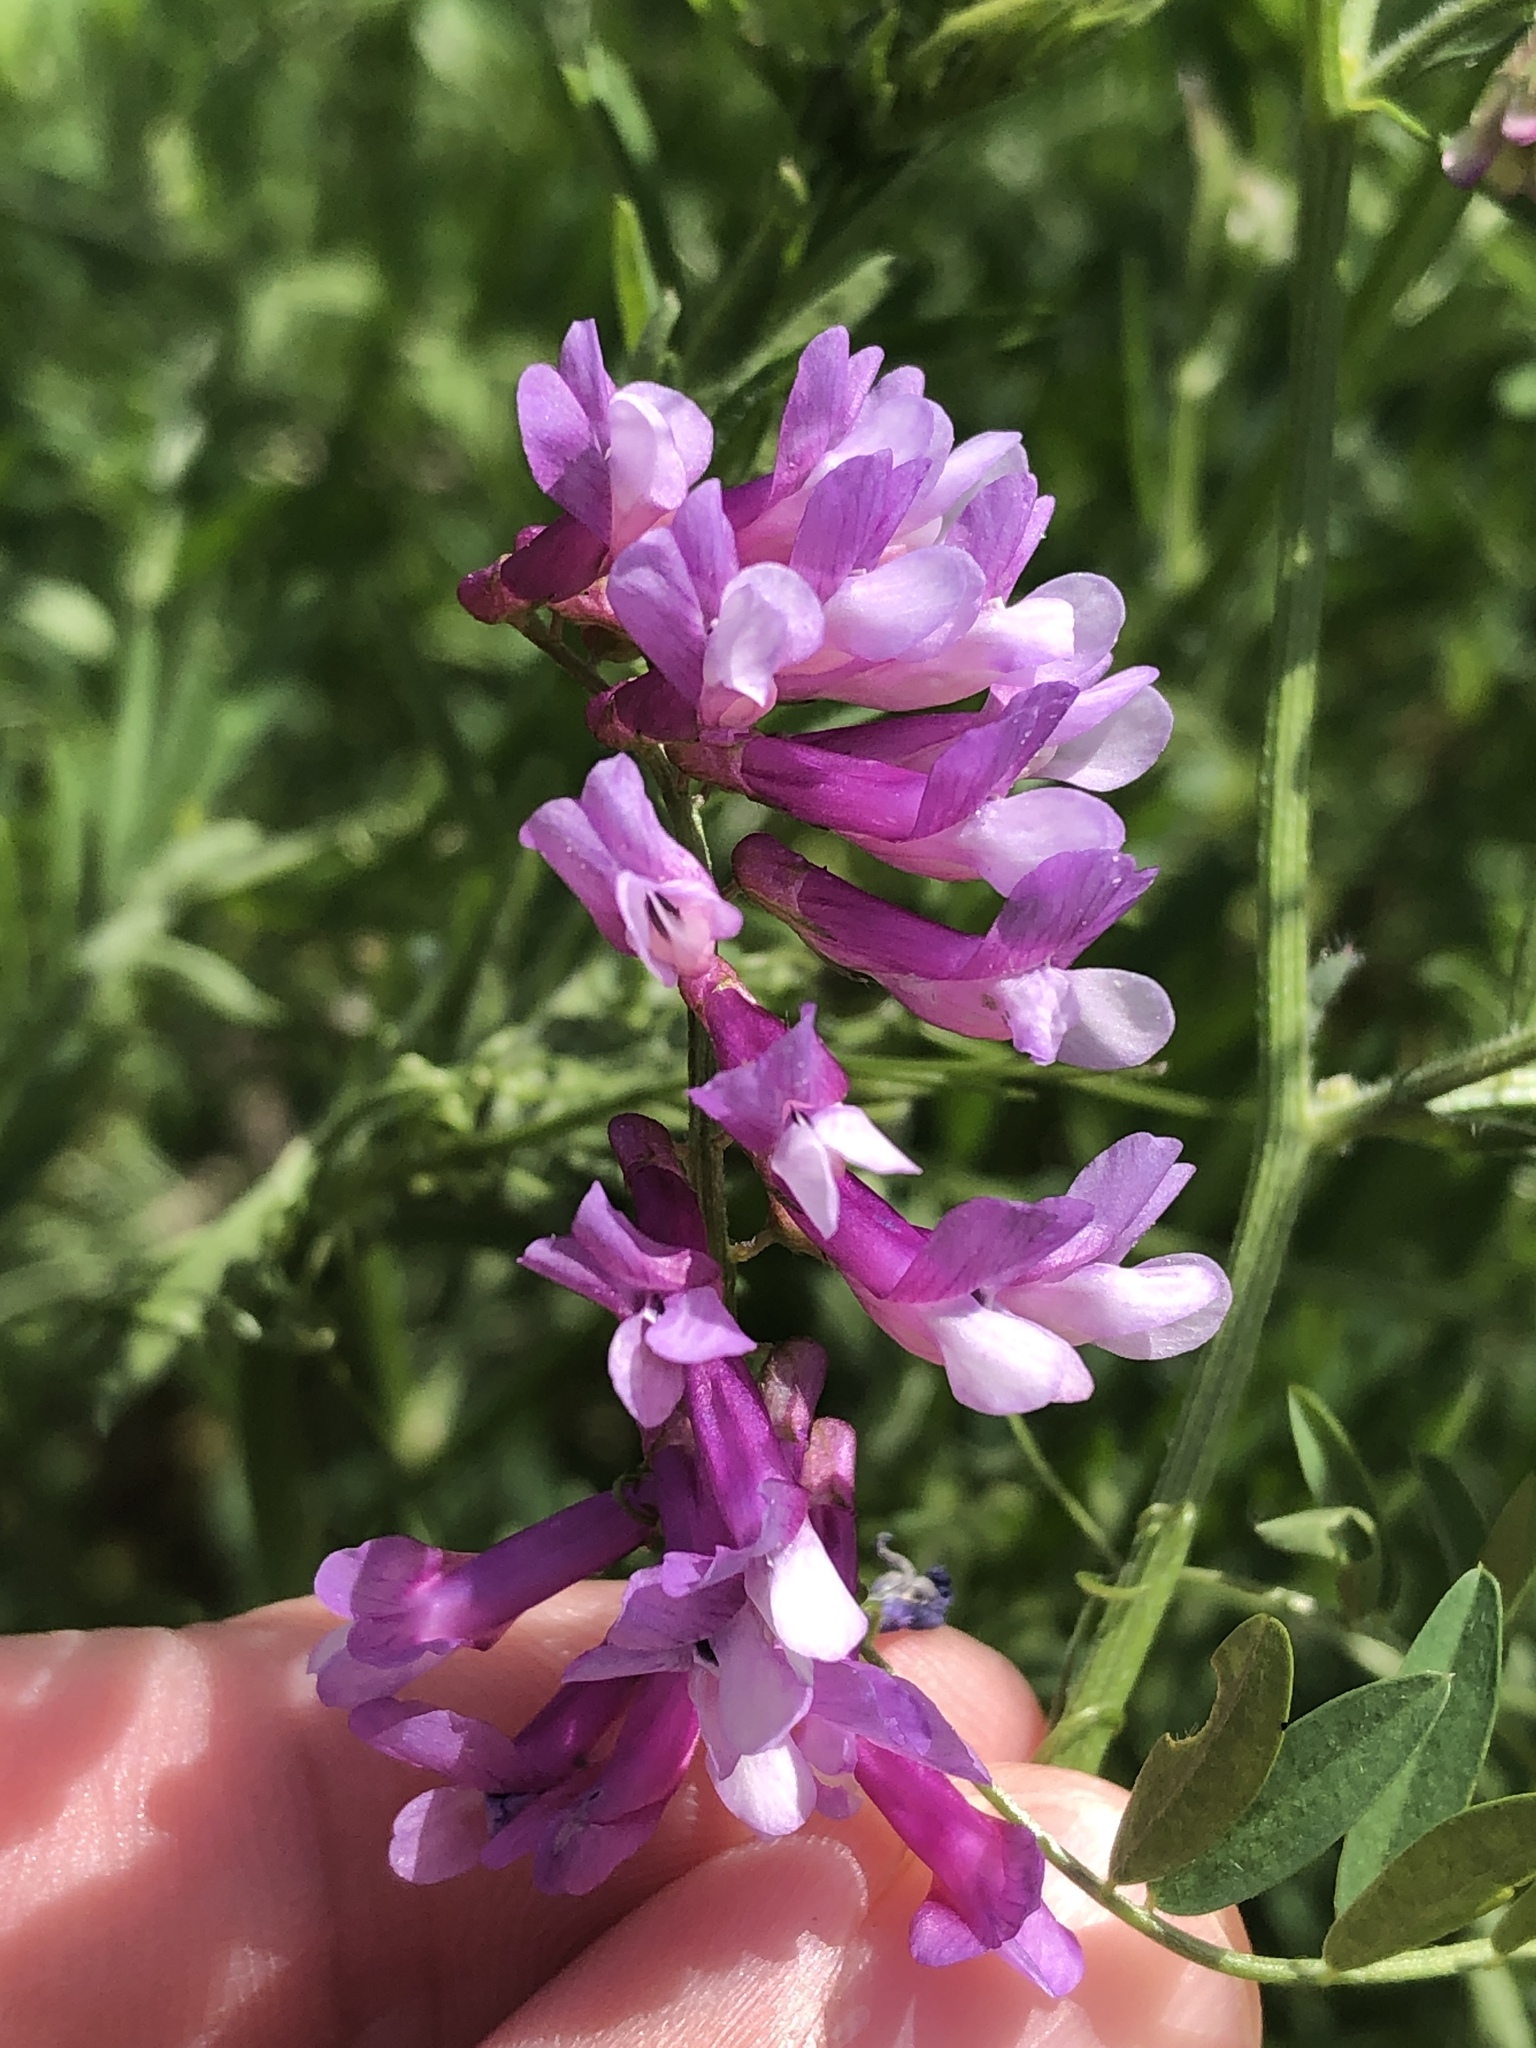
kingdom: Plantae
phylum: Tracheophyta
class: Magnoliopsida
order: Fabales
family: Fabaceae
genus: Vicia
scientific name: Vicia villosa
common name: Fodder vetch
